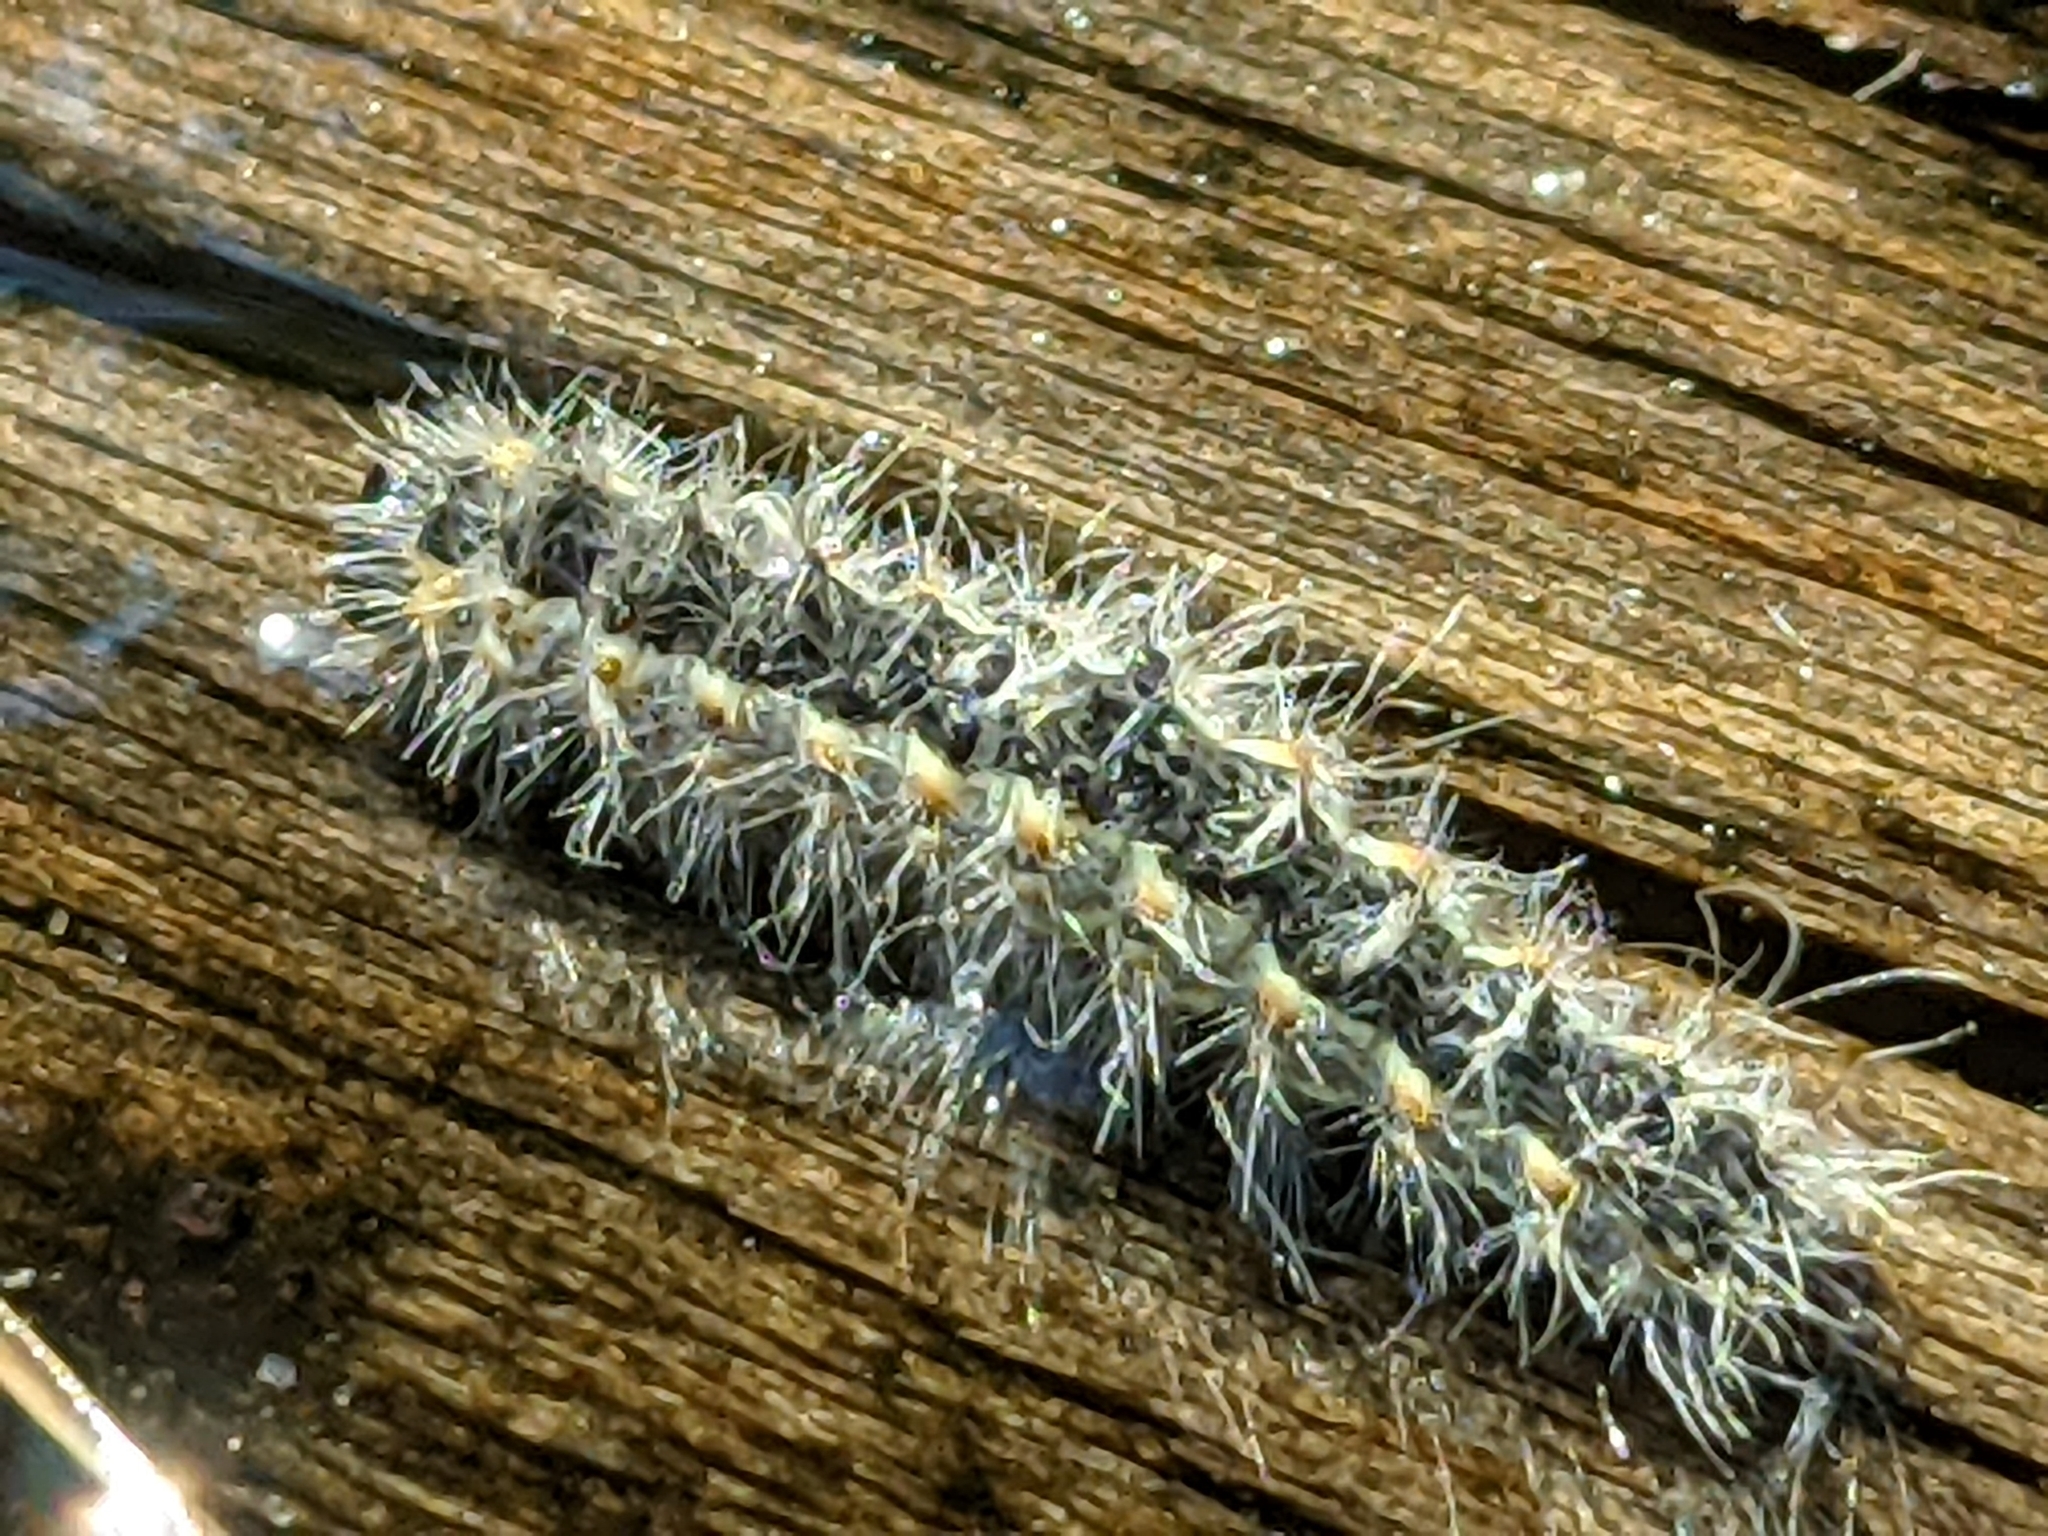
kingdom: Animalia
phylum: Arthropoda
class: Insecta
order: Lepidoptera
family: Erebidae
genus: Hyphantria
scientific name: Hyphantria cunea
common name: American white moth
